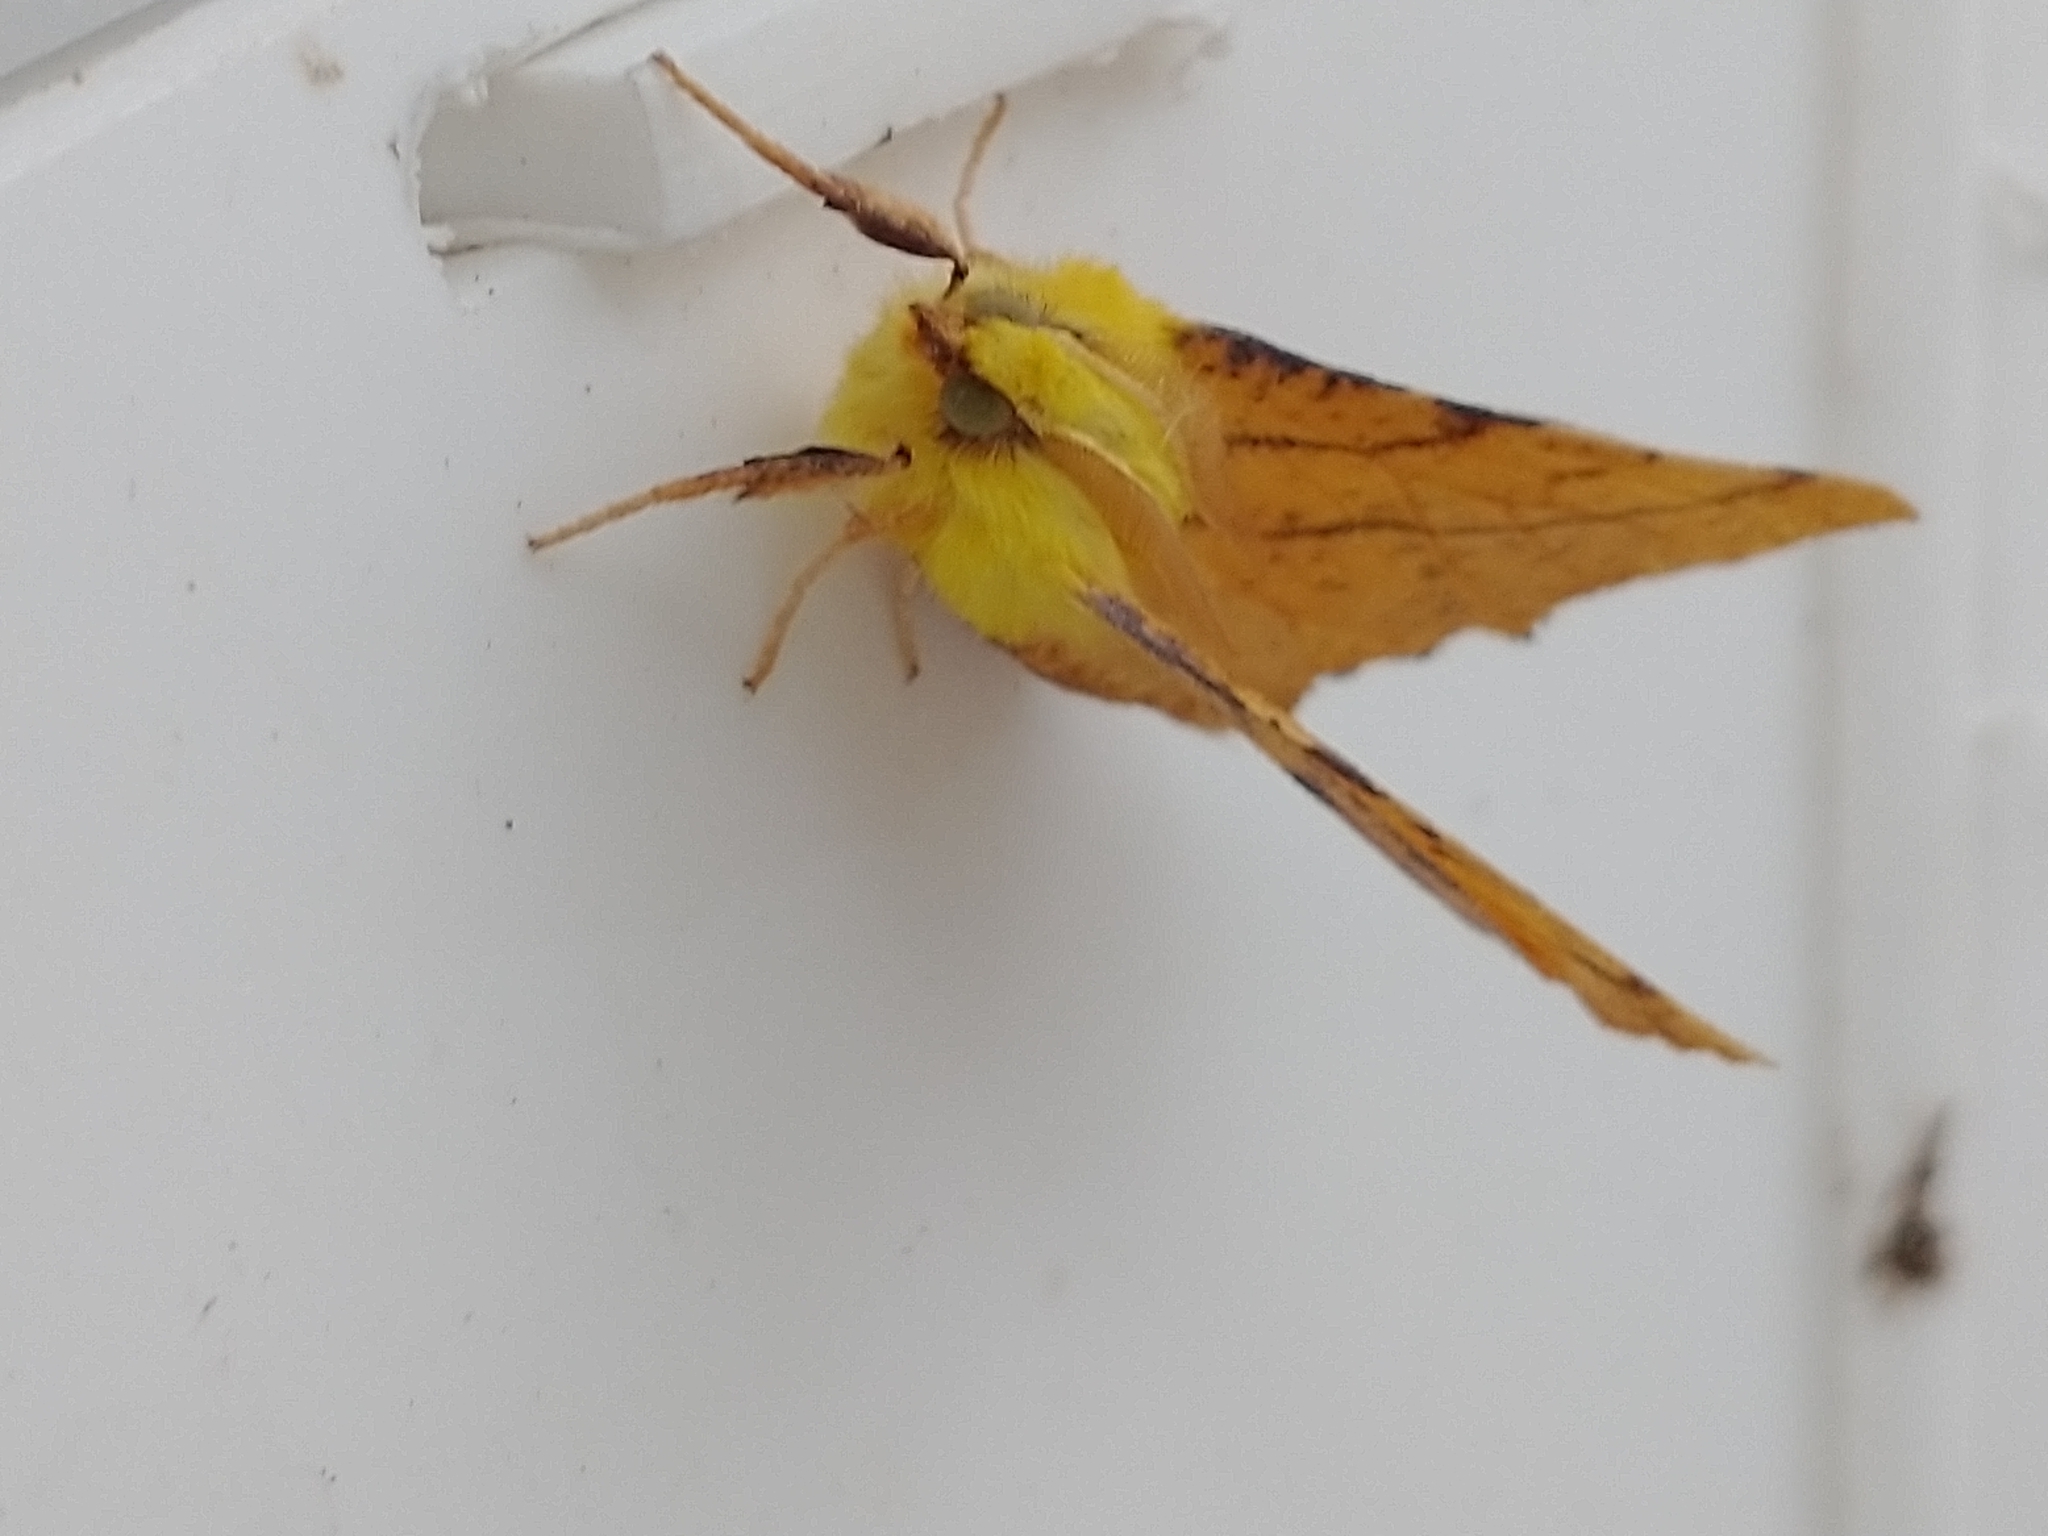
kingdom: Animalia
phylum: Arthropoda
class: Insecta
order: Lepidoptera
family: Geometridae
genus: Ennomos
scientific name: Ennomos alniaria
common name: Canary-shouldered thorn
